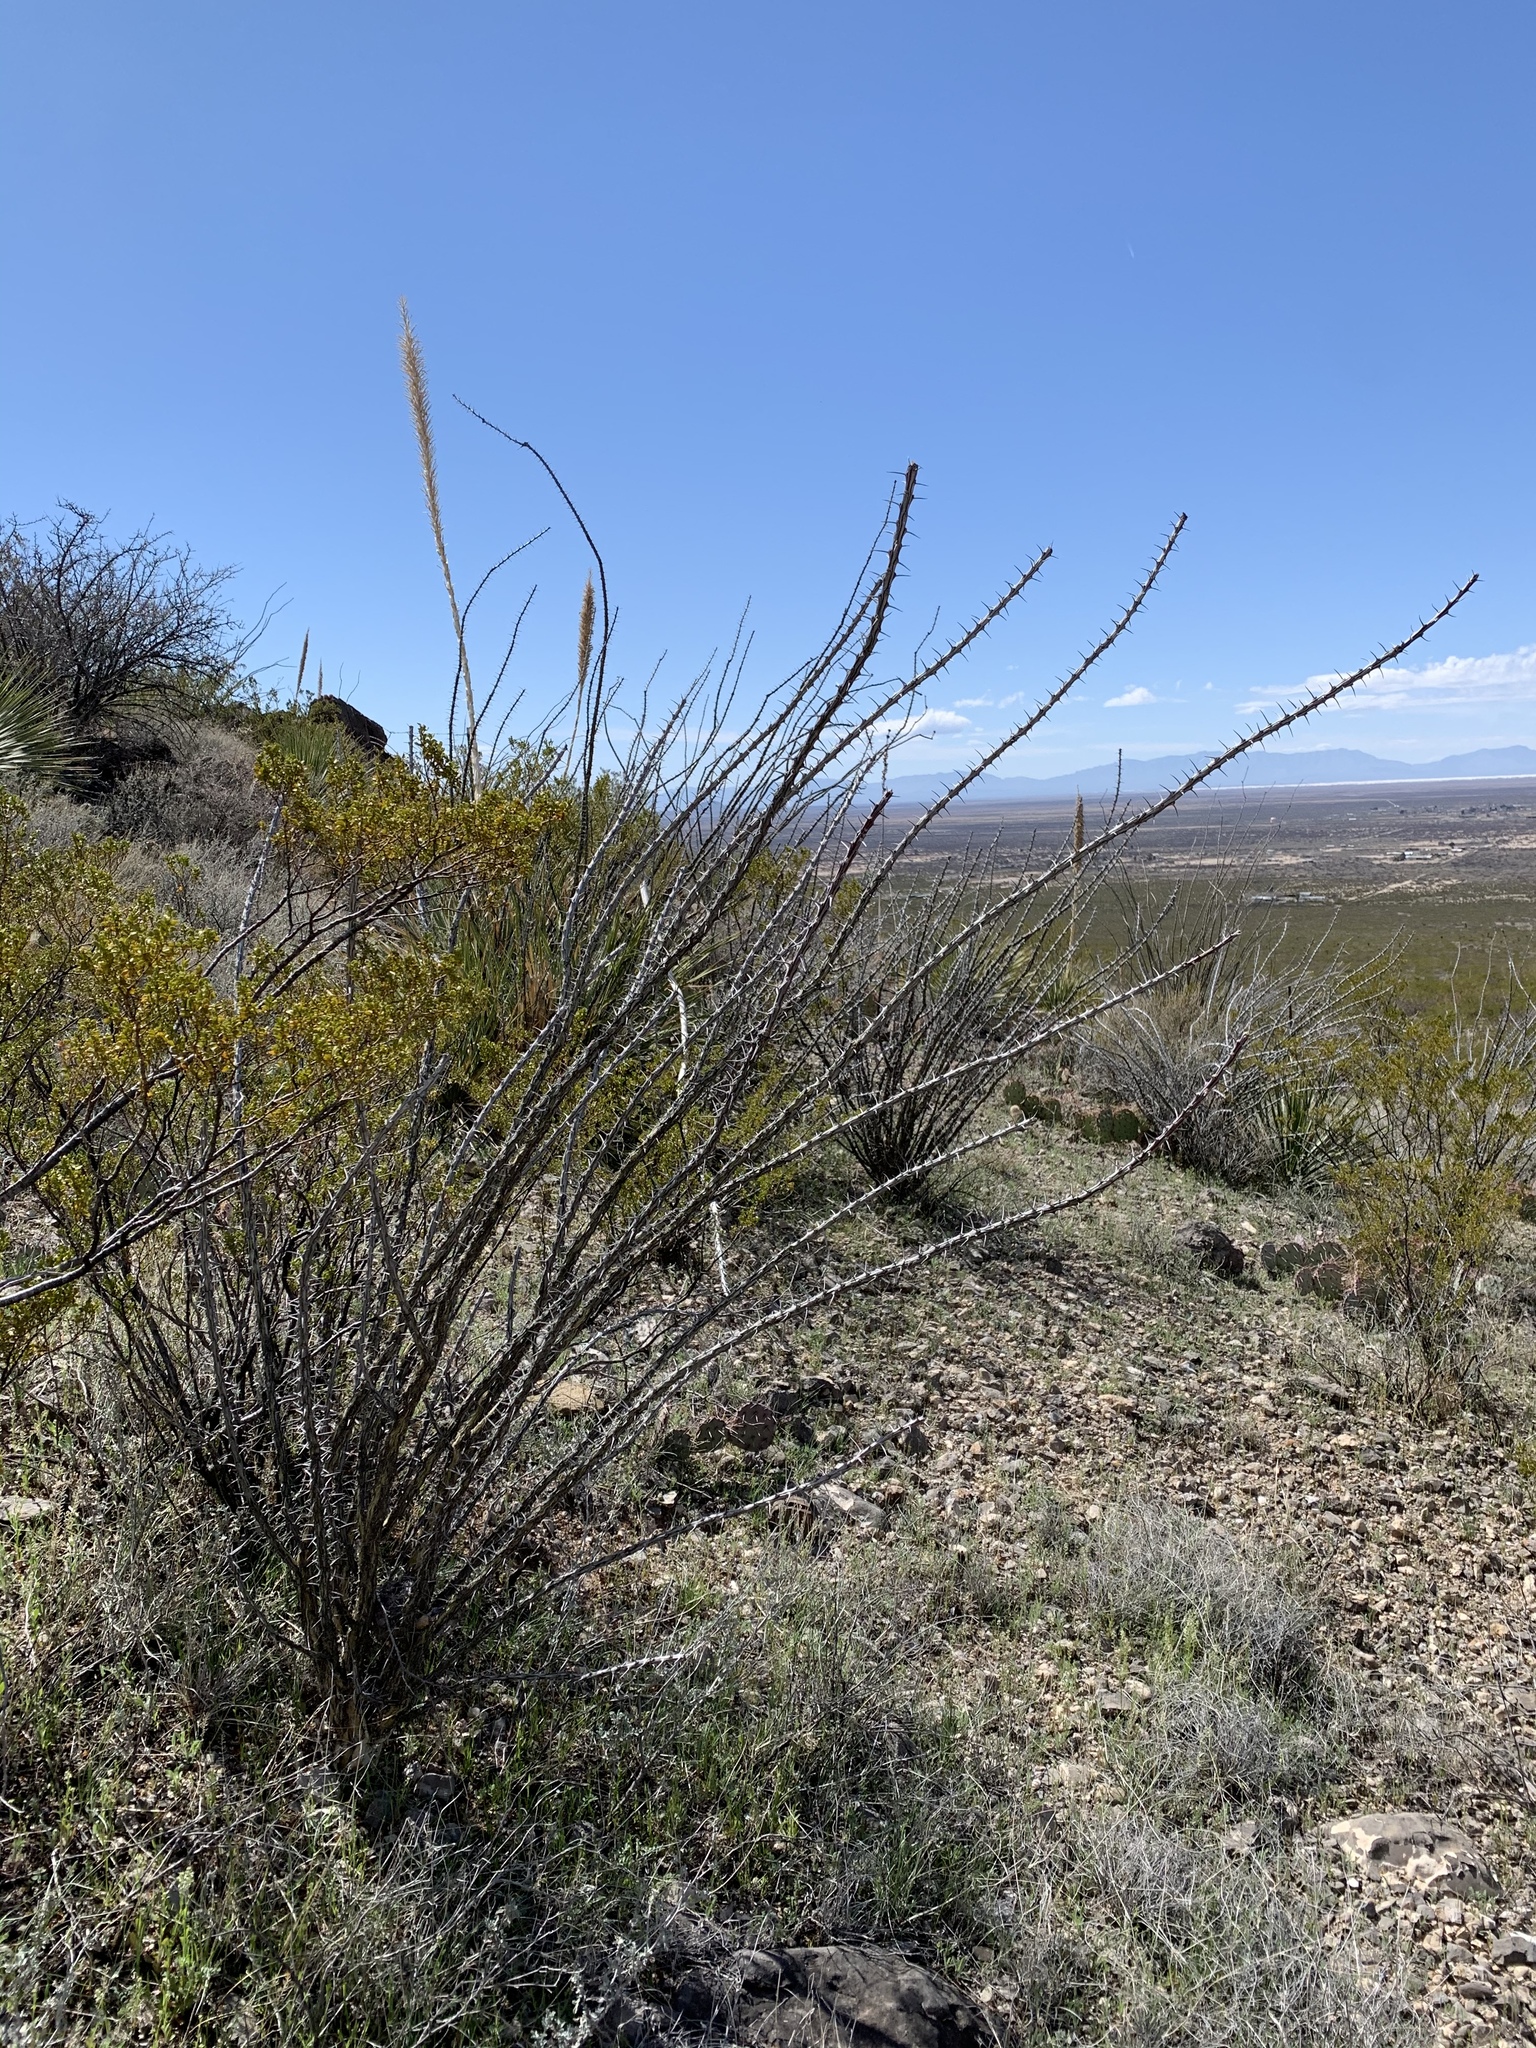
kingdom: Plantae
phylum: Tracheophyta
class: Magnoliopsida
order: Ericales
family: Fouquieriaceae
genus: Fouquieria
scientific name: Fouquieria splendens
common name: Vine-cactus
